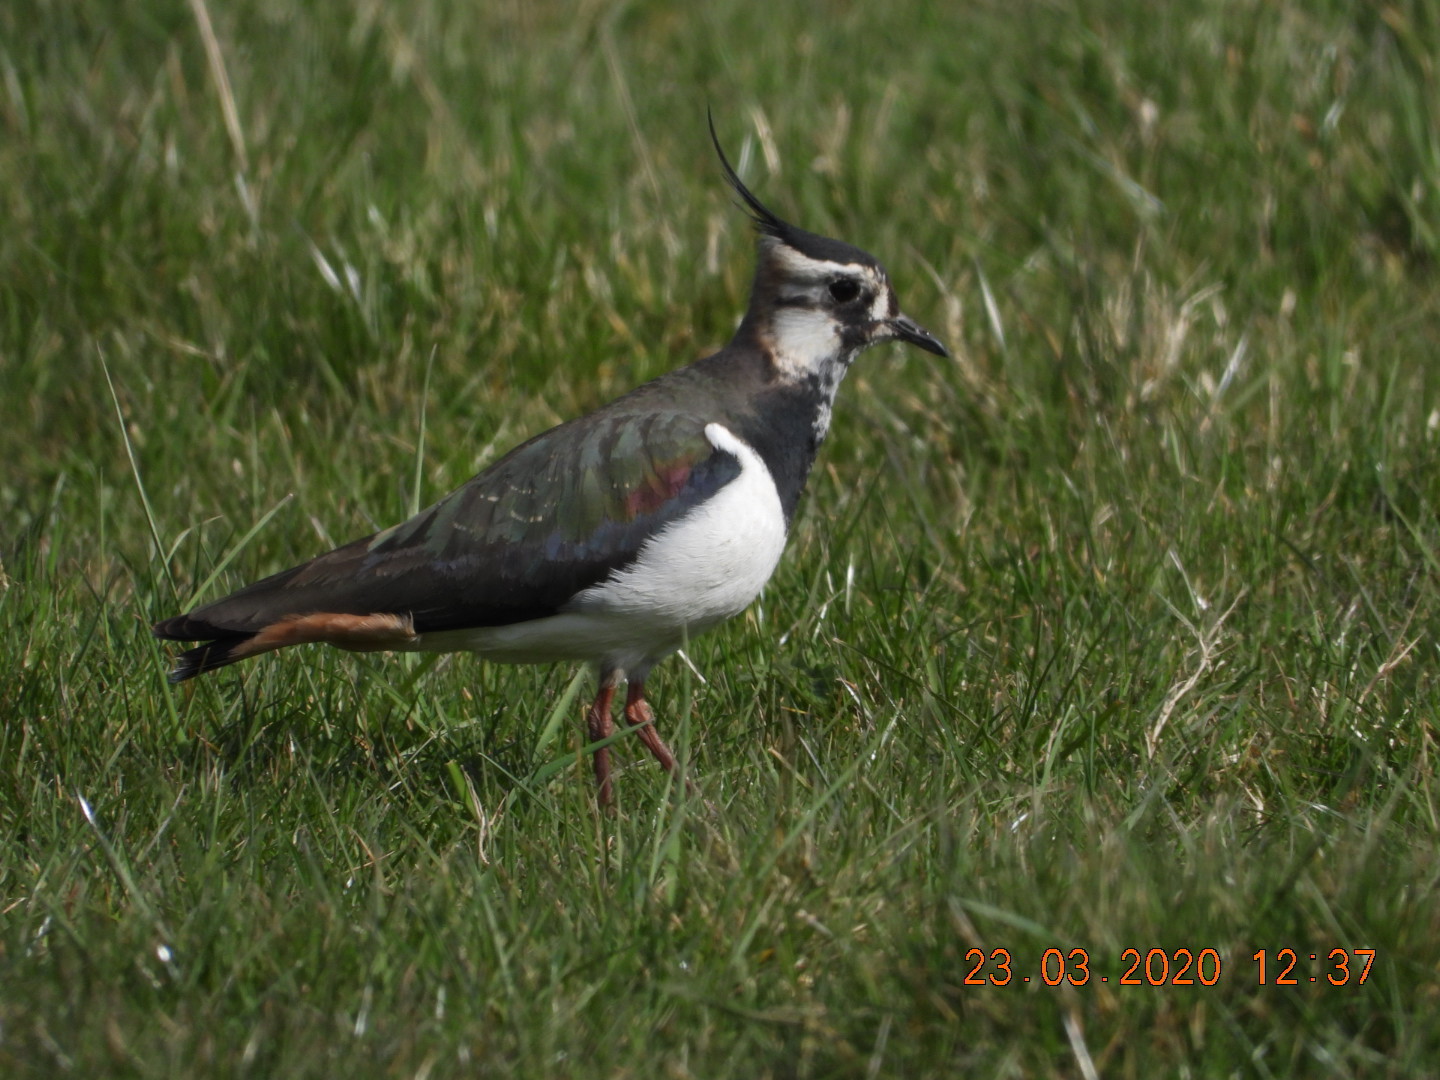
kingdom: Animalia
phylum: Chordata
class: Aves
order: Charadriiformes
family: Charadriidae
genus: Vanellus
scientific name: Vanellus vanellus
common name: Northern lapwing
